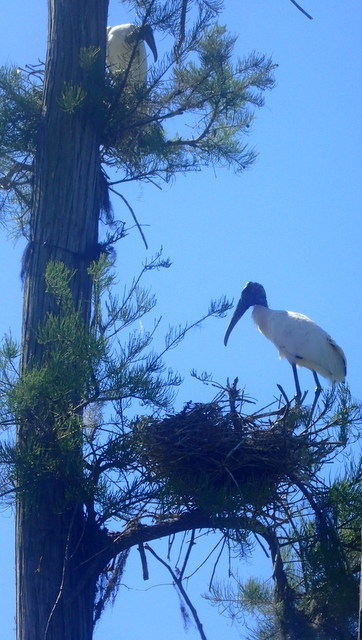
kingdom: Animalia
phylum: Chordata
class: Aves
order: Ciconiiformes
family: Ciconiidae
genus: Mycteria
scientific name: Mycteria americana
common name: Wood stork
